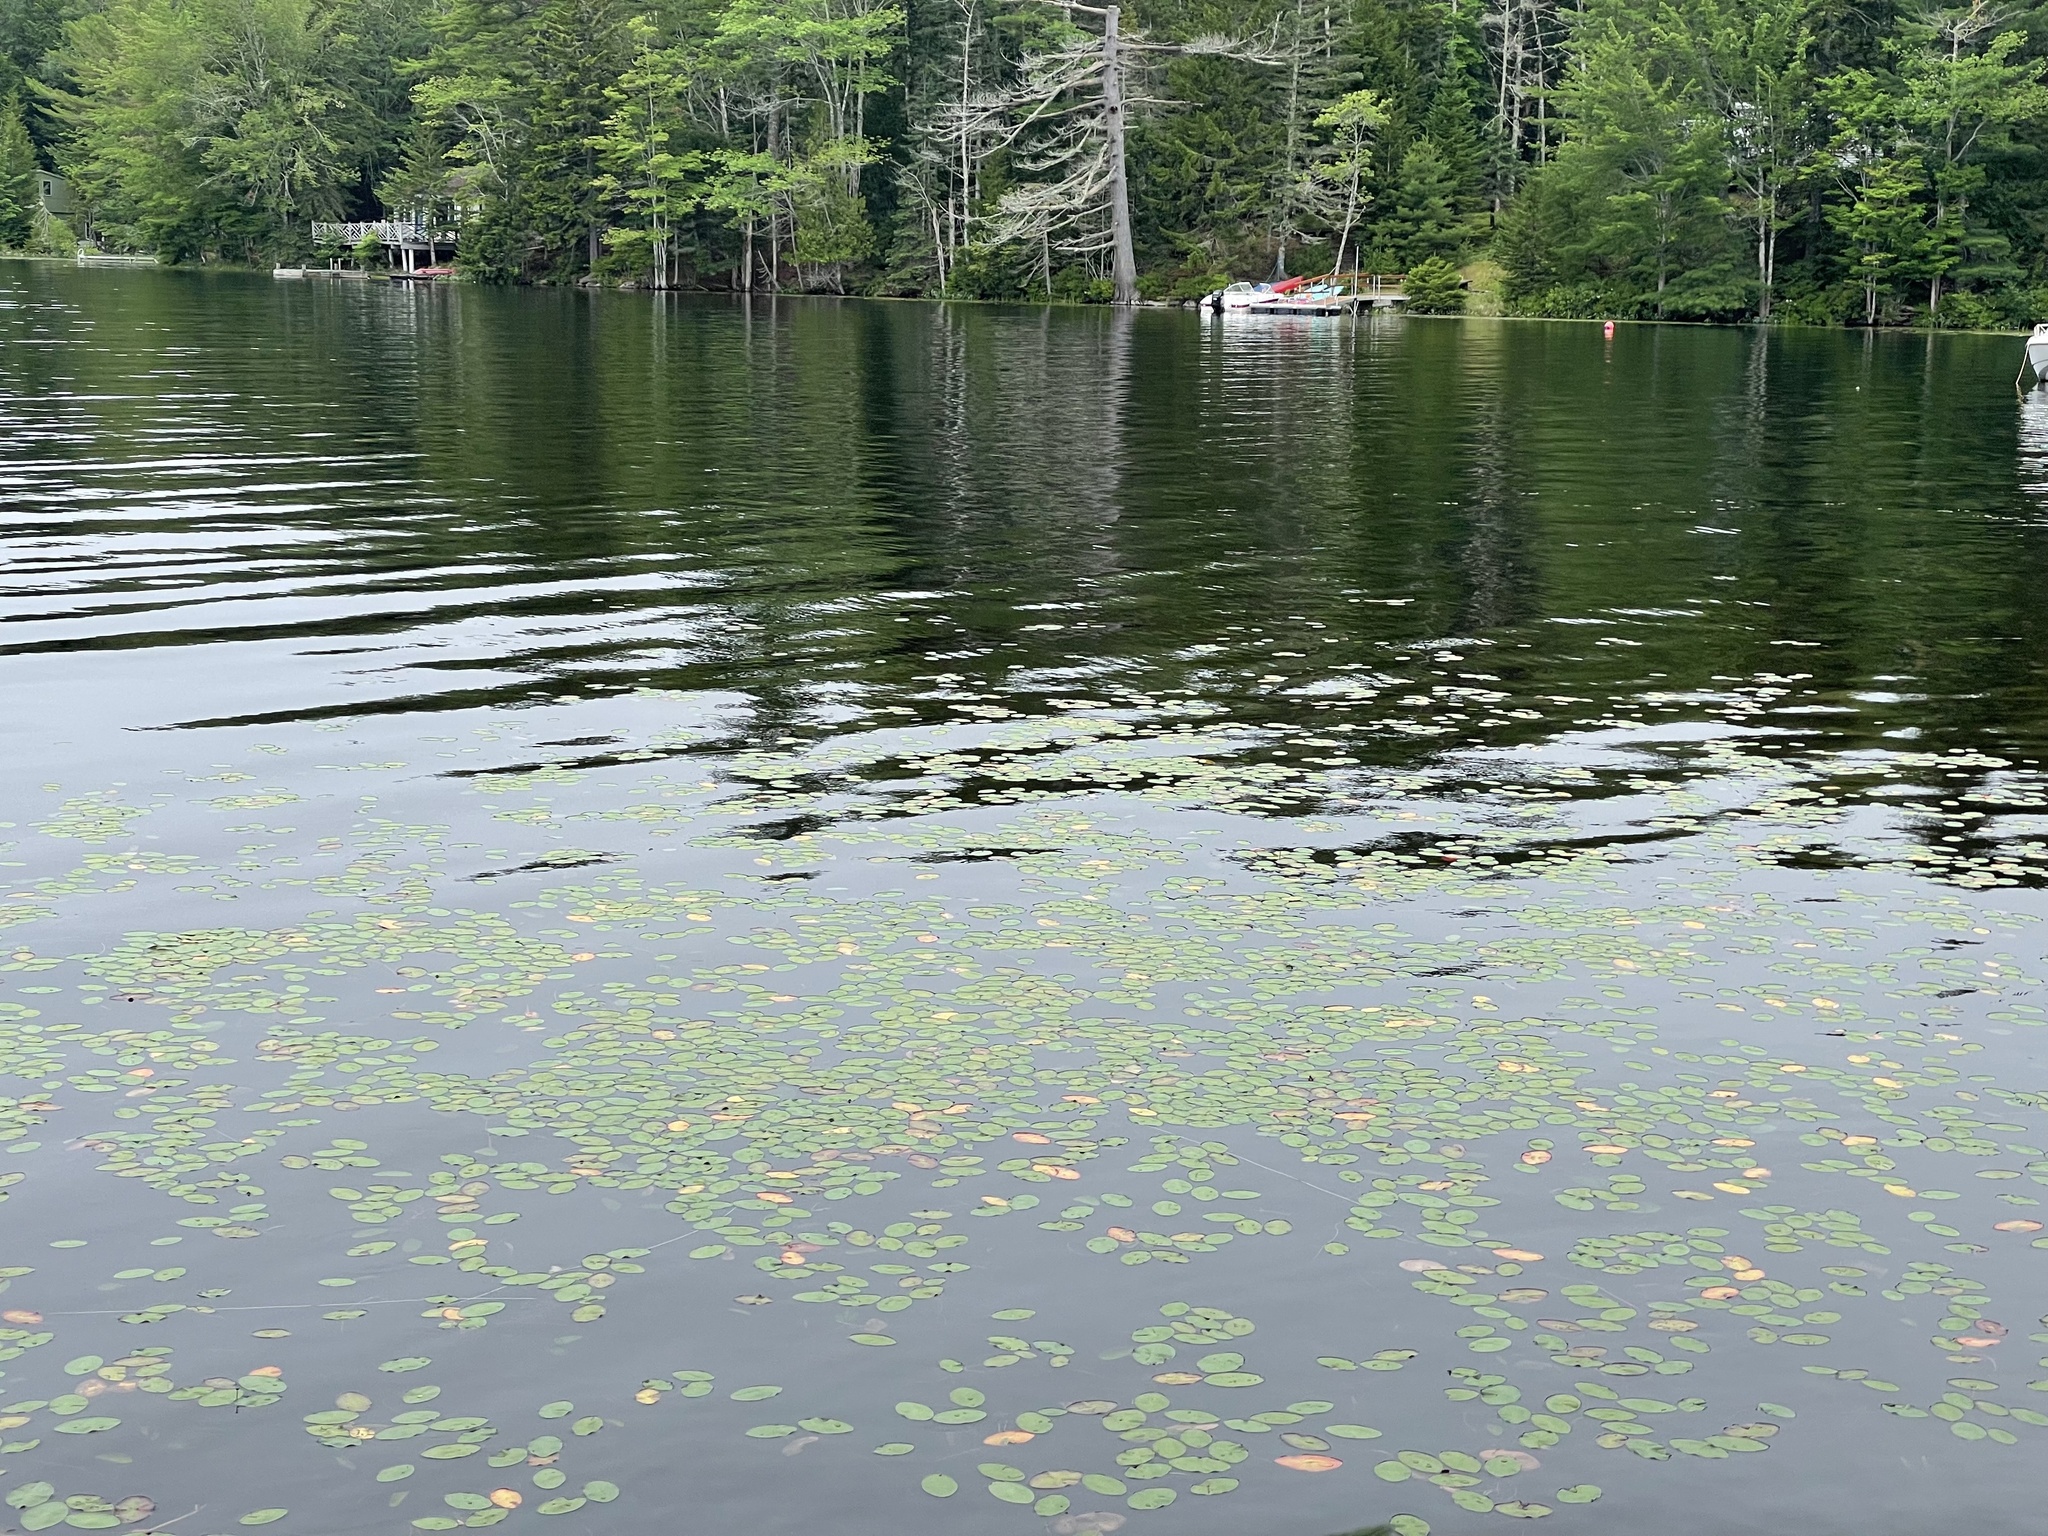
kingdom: Plantae
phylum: Tracheophyta
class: Magnoliopsida
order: Nymphaeales
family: Cabombaceae
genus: Brasenia
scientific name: Brasenia schreberi
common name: Water-shield
